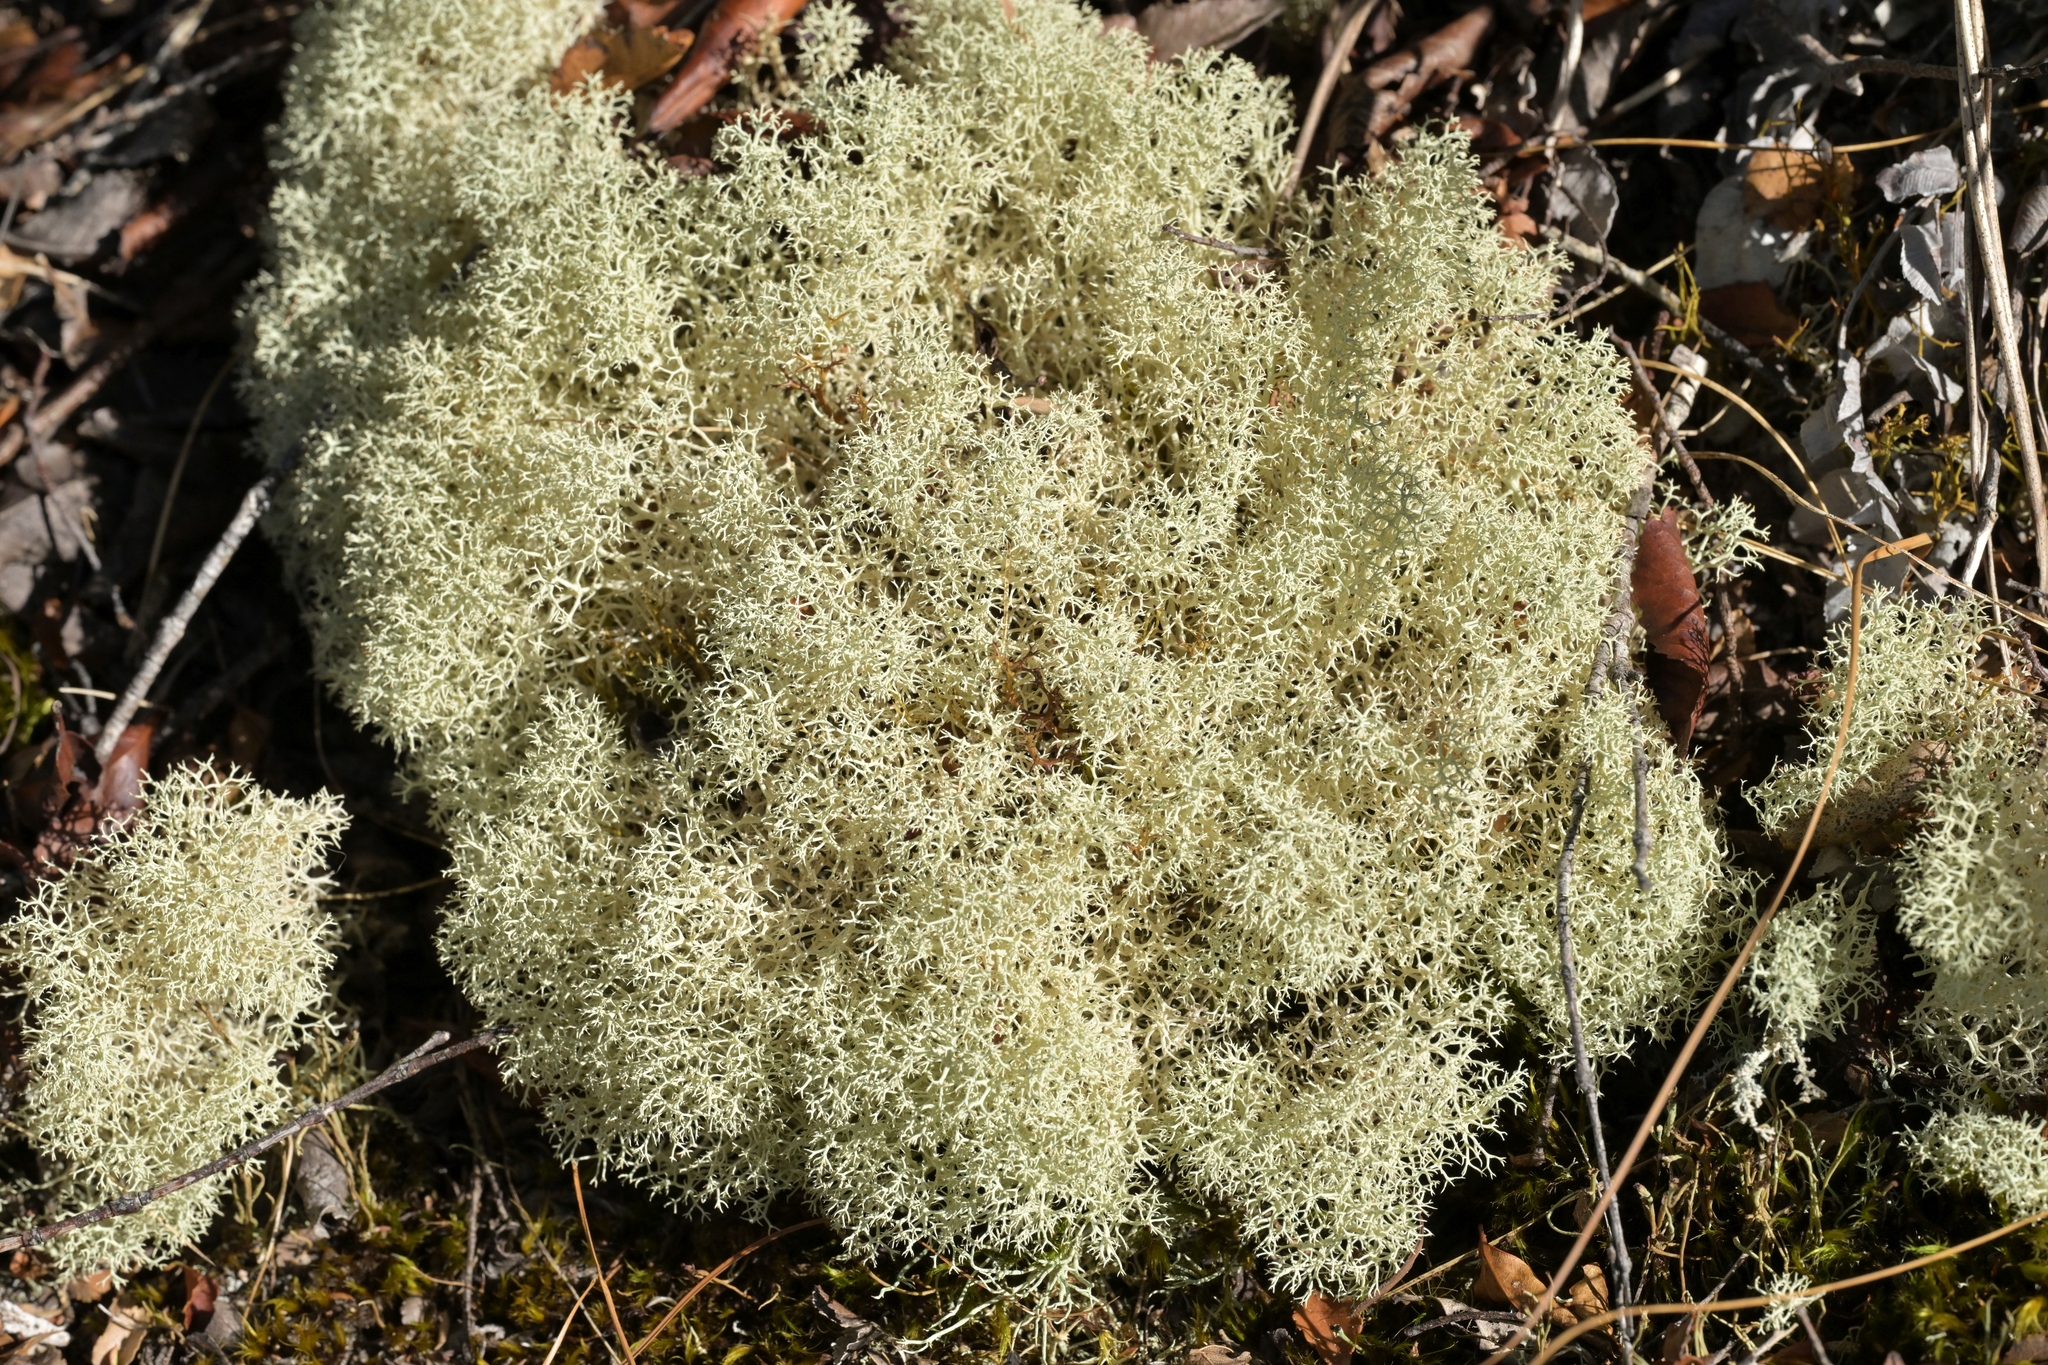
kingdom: Fungi
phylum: Ascomycota
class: Lecanoromycetes
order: Lecanorales
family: Cladoniaceae
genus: Cladonia
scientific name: Cladonia confusa
